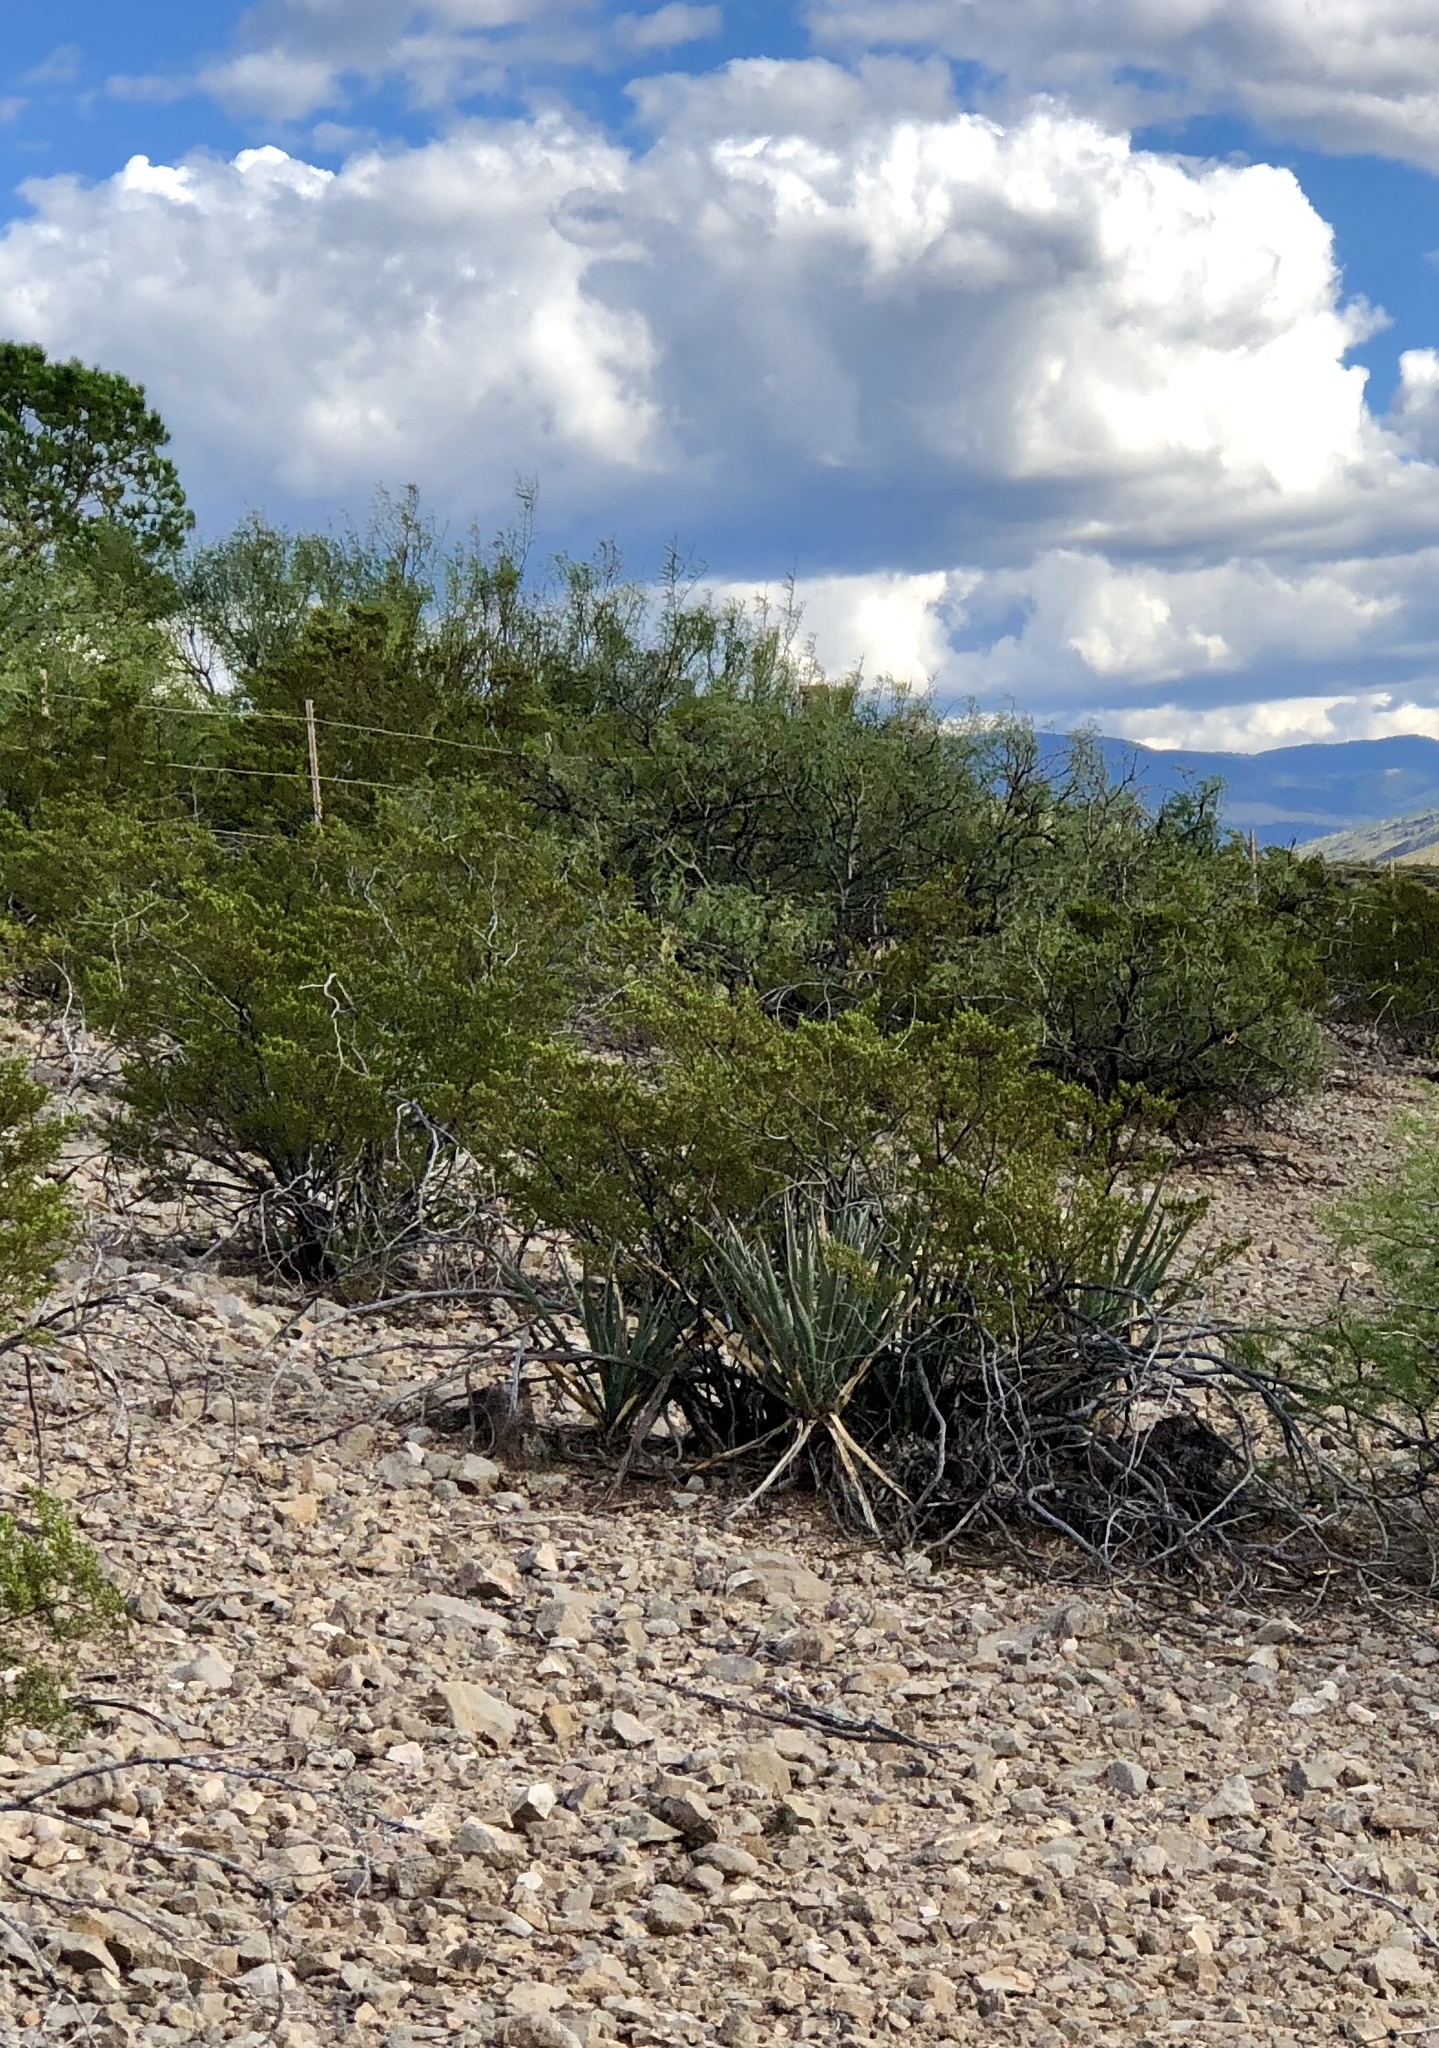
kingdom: Plantae
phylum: Tracheophyta
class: Magnoliopsida
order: Zygophyllales
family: Zygophyllaceae
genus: Larrea
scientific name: Larrea tridentata
